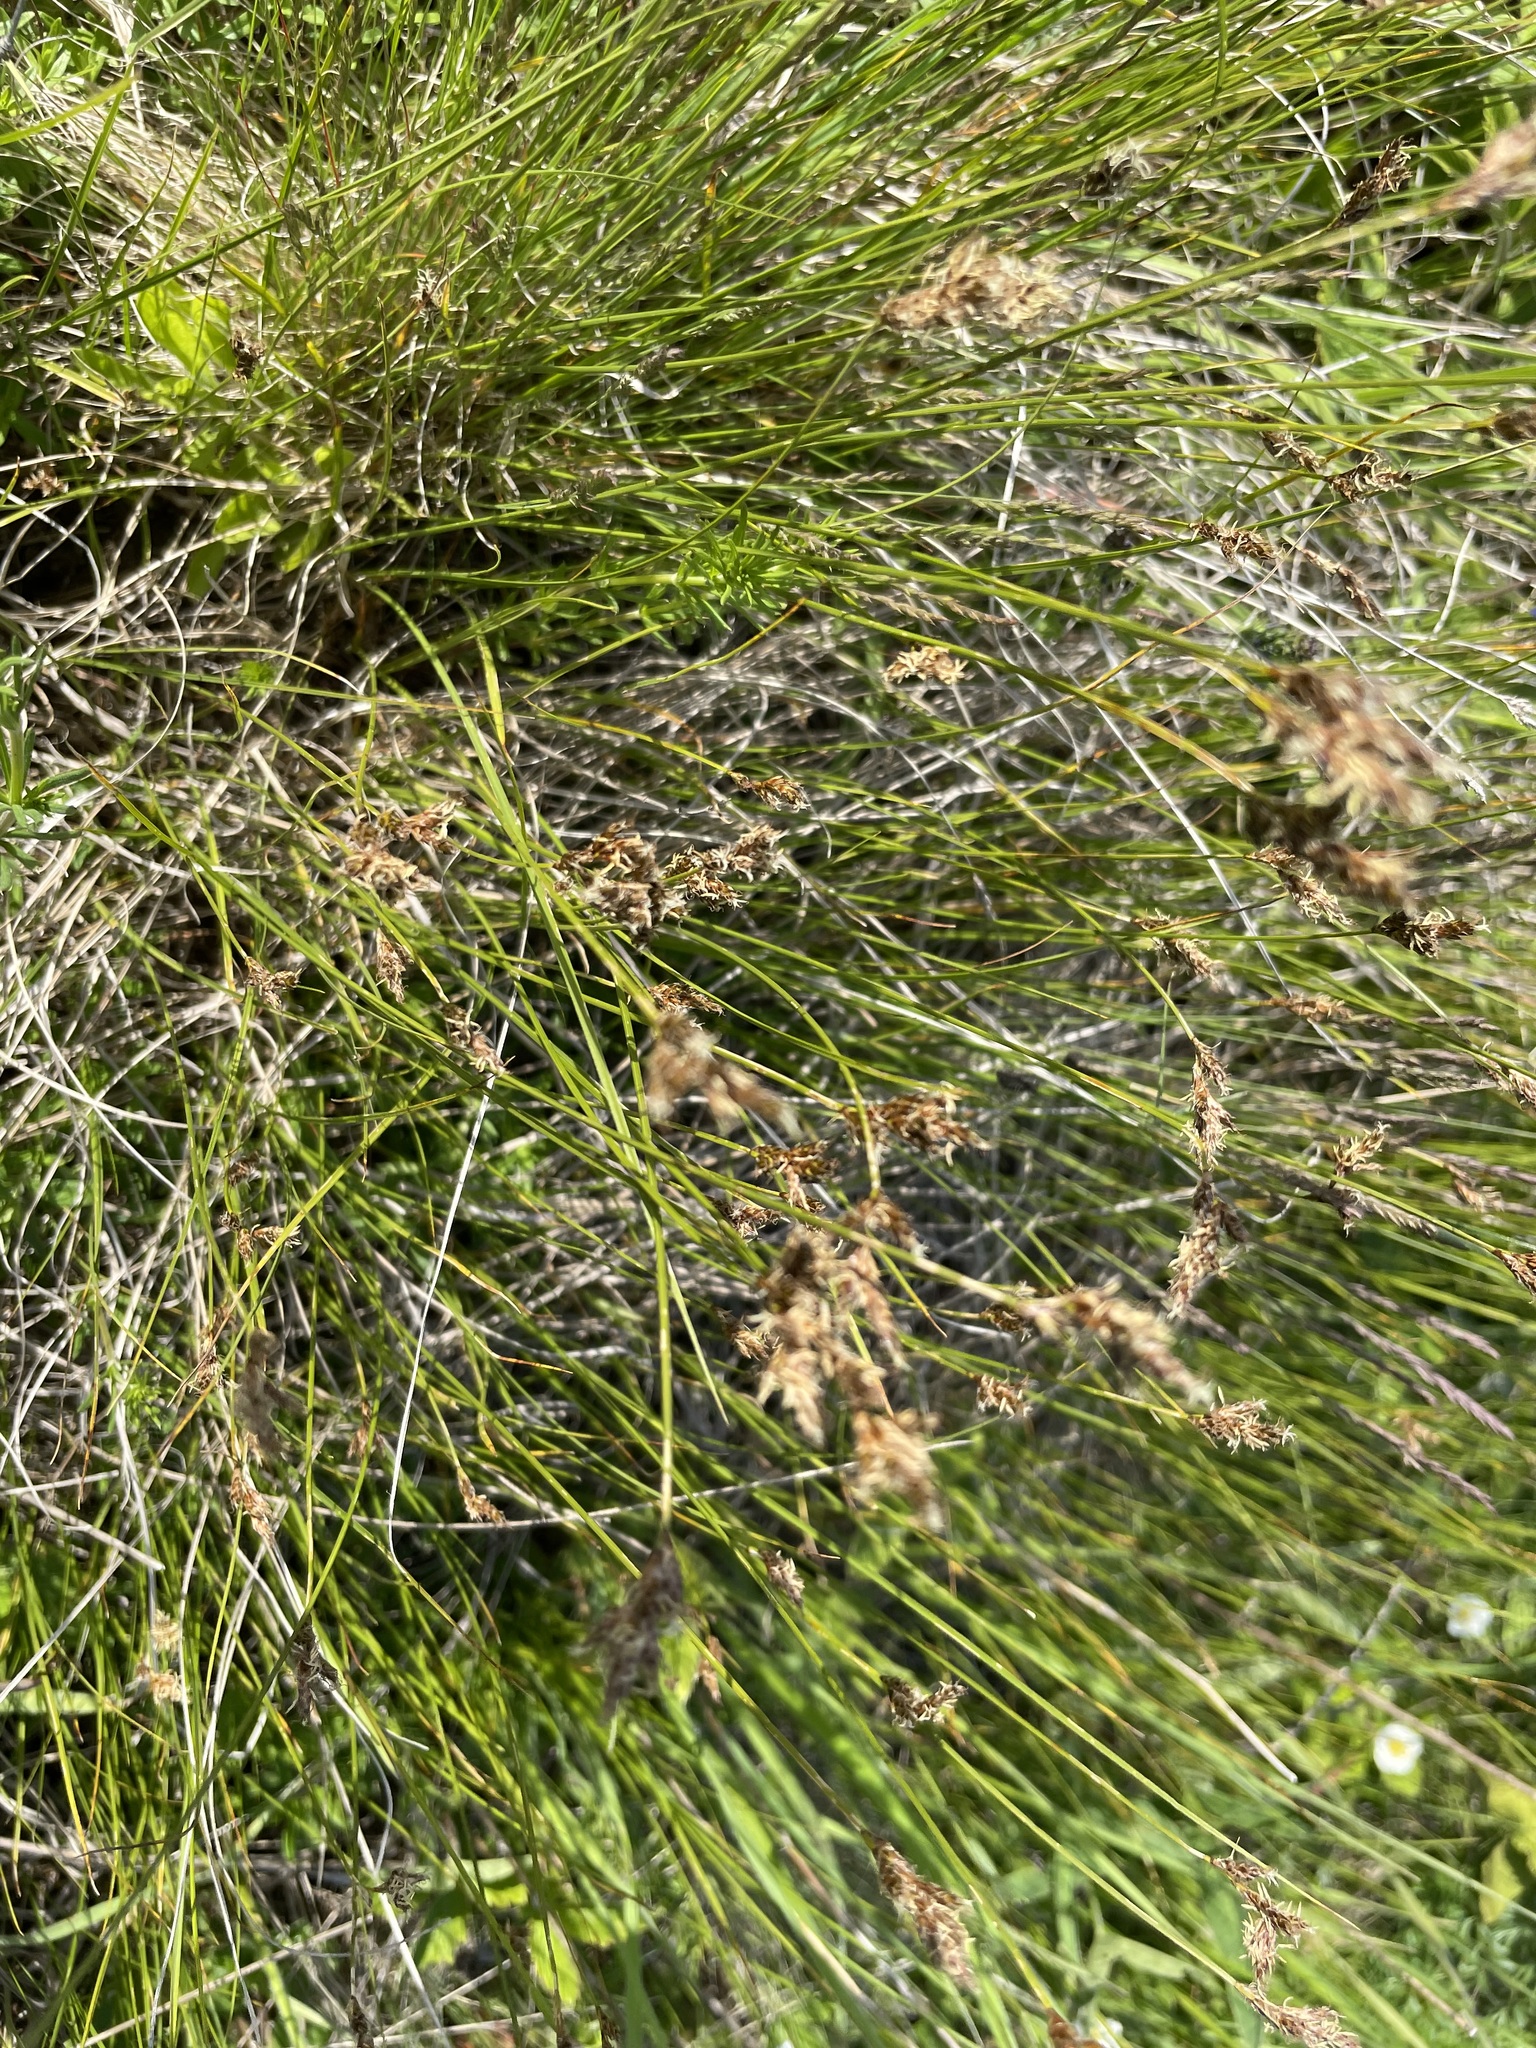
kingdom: Plantae
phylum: Tracheophyta
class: Liliopsida
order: Poales
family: Cyperaceae
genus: Carex
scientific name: Carex praecox
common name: Early sedge
